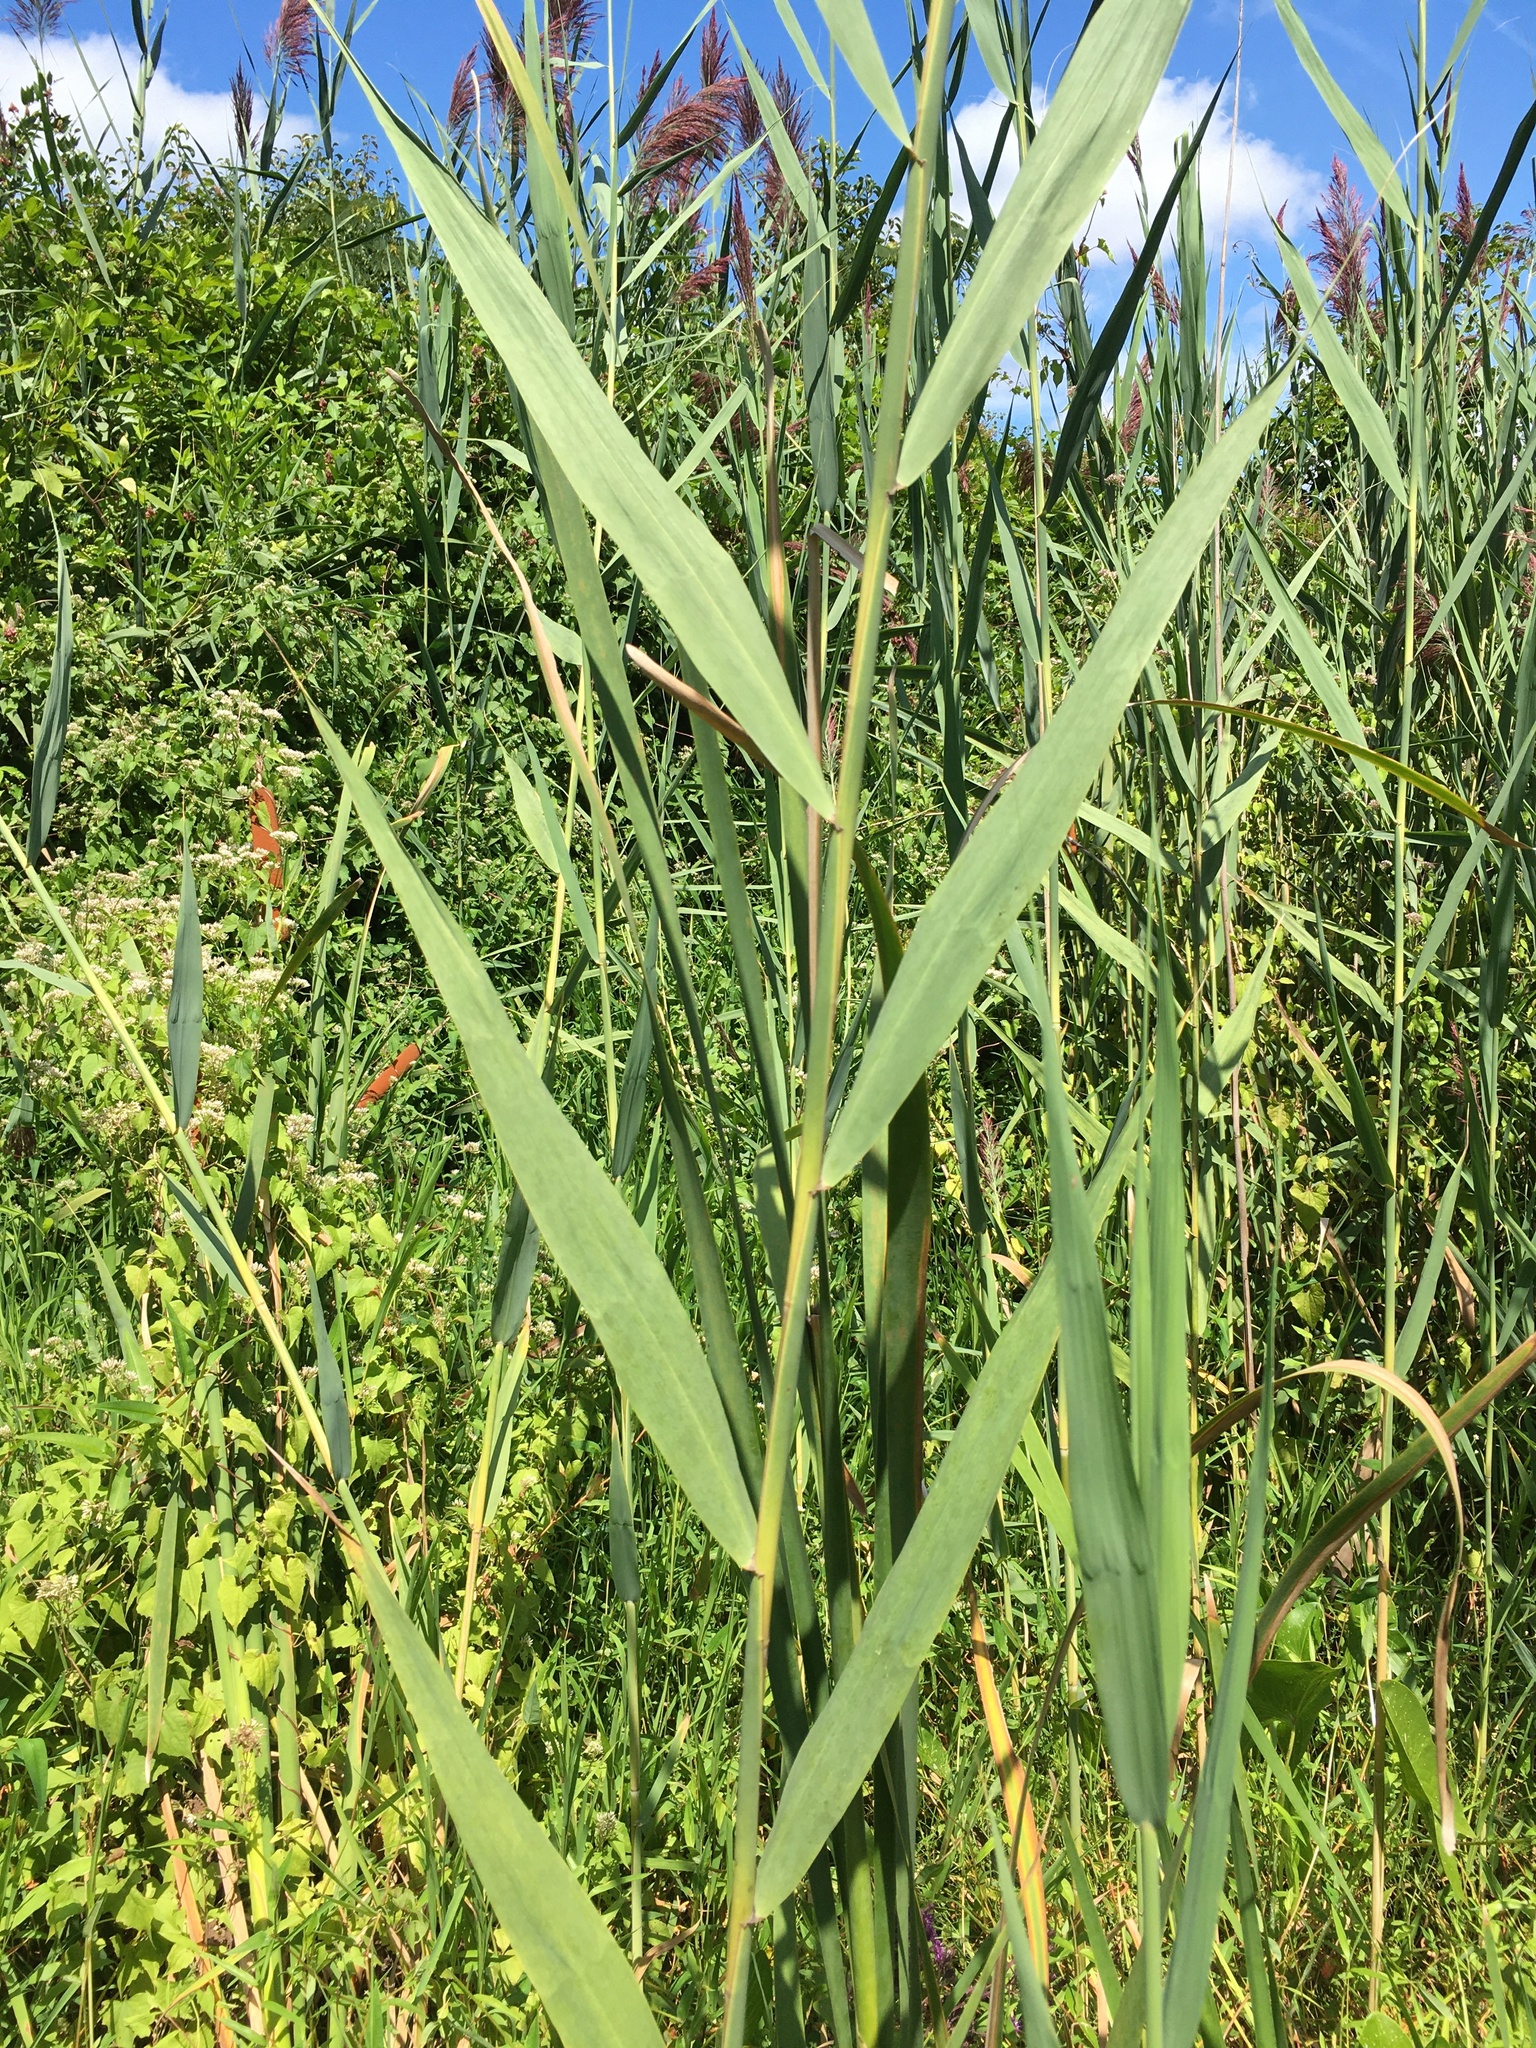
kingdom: Plantae
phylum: Tracheophyta
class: Liliopsida
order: Poales
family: Poaceae
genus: Phragmites
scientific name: Phragmites australis
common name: Common reed
